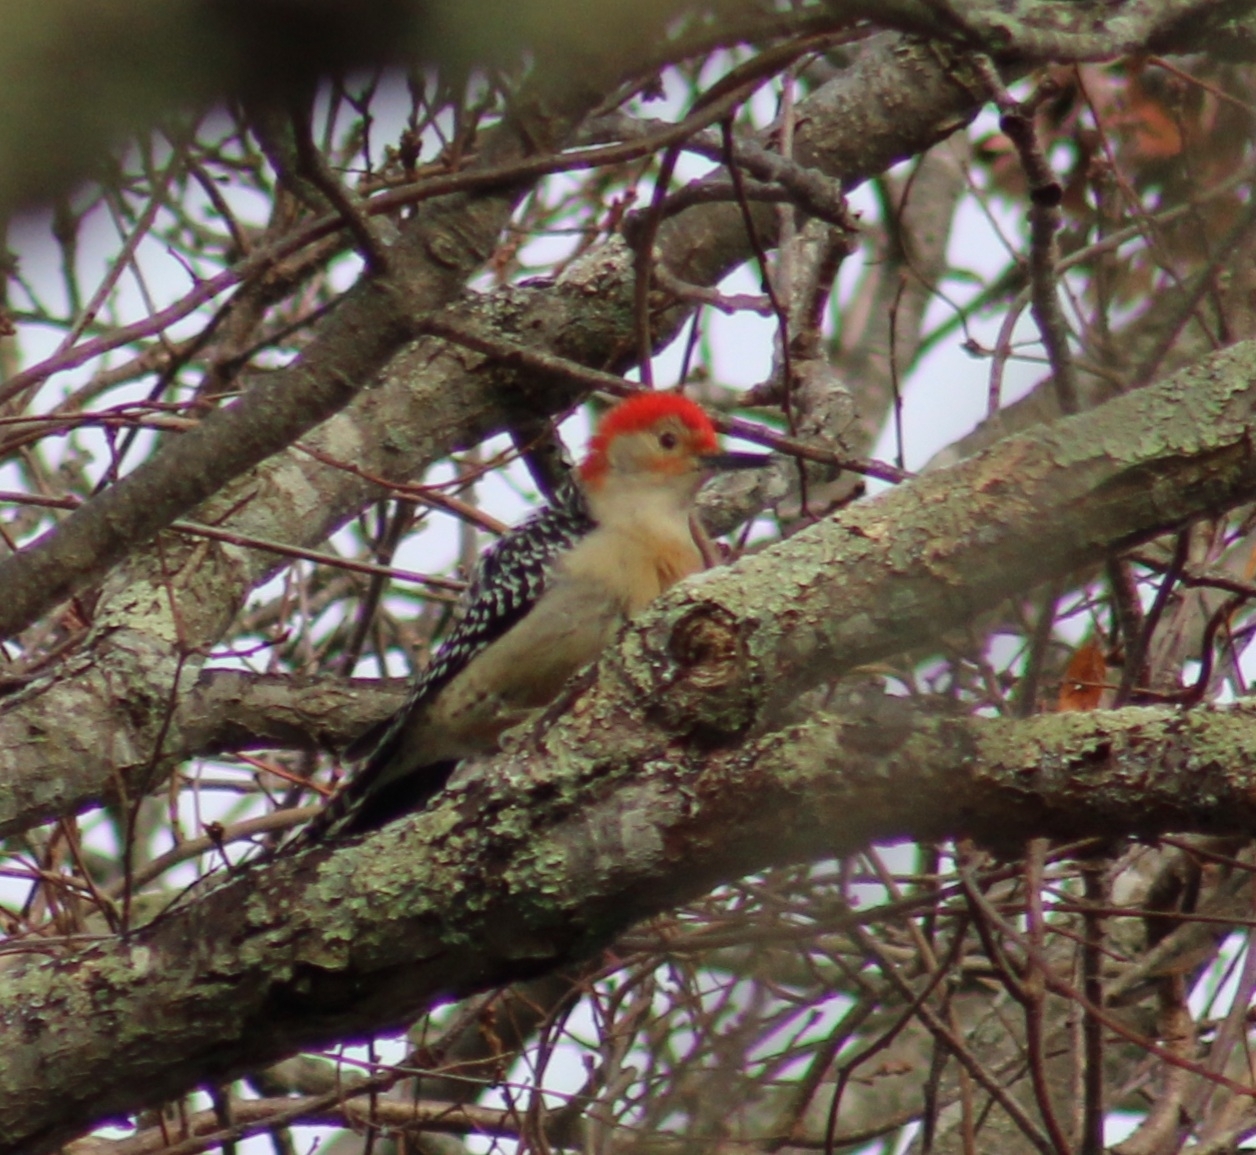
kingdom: Animalia
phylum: Chordata
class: Aves
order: Piciformes
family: Picidae
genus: Melanerpes
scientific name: Melanerpes carolinus
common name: Red-bellied woodpecker
